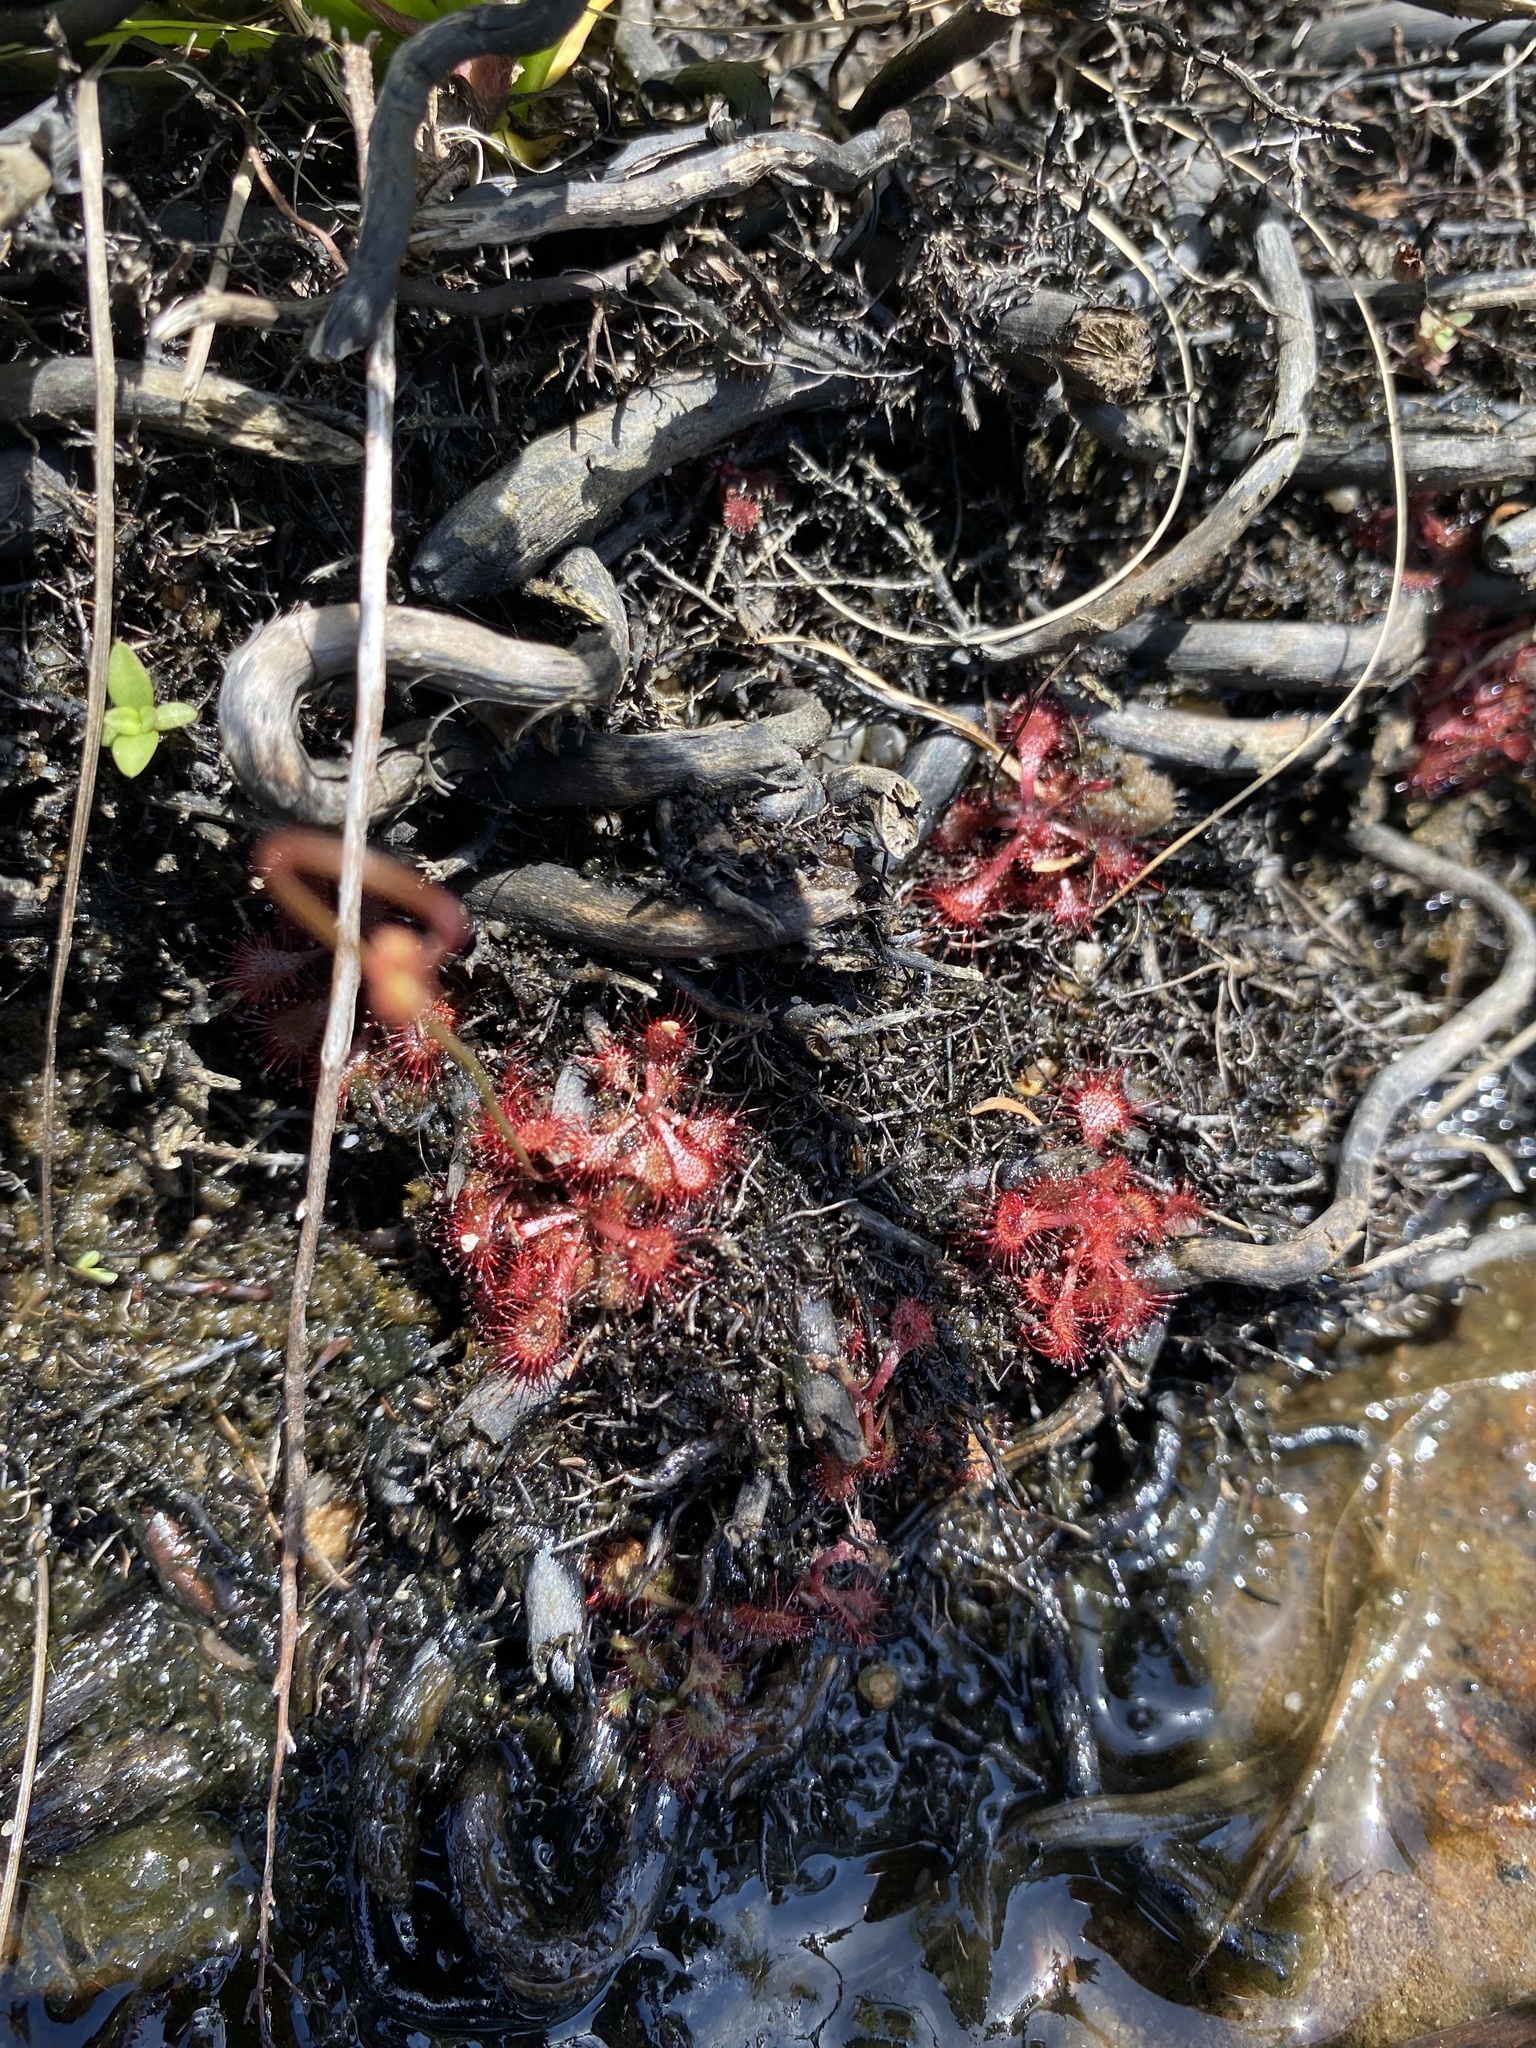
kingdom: Plantae
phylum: Tracheophyta
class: Magnoliopsida
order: Caryophyllales
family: Droseraceae
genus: Drosera
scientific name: Drosera natalensis
